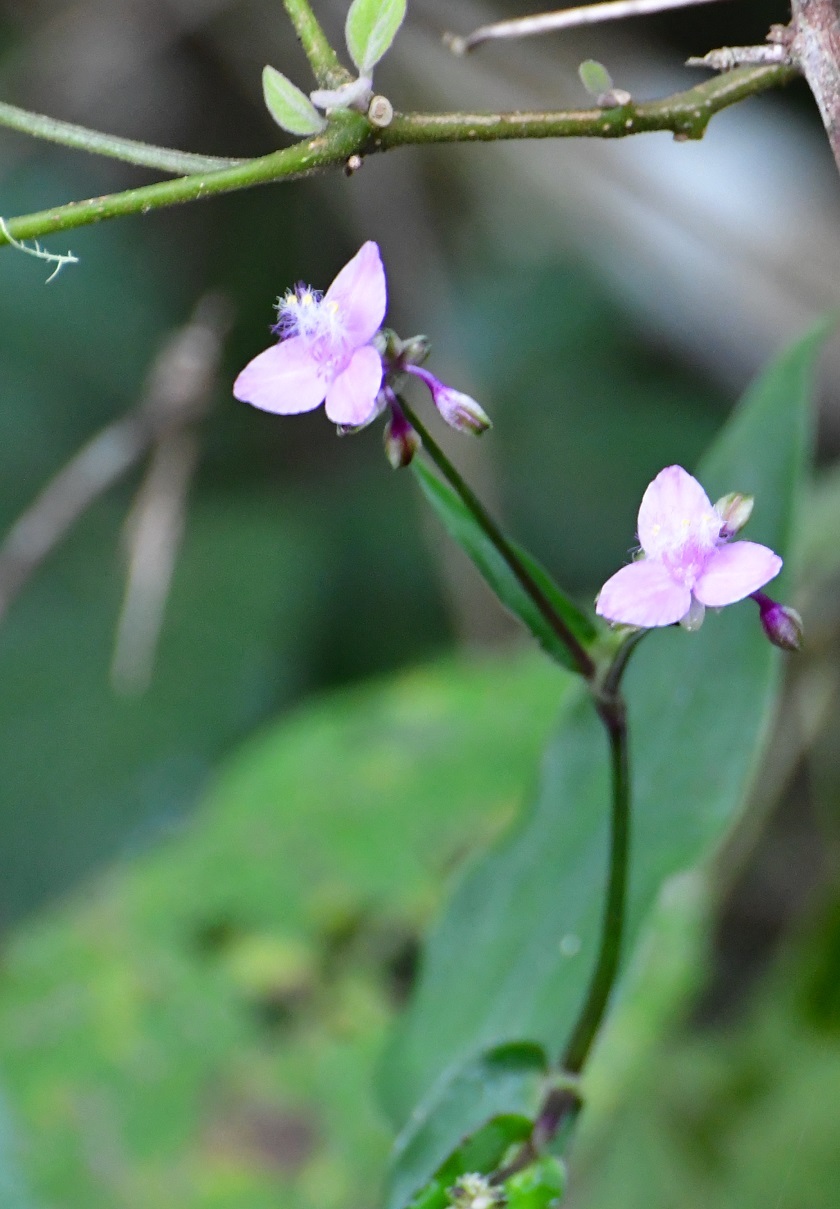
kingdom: Plantae
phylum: Tracheophyta
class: Liliopsida
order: Commelinales
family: Commelinaceae
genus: Callisia
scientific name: Callisia amplexicaulis
